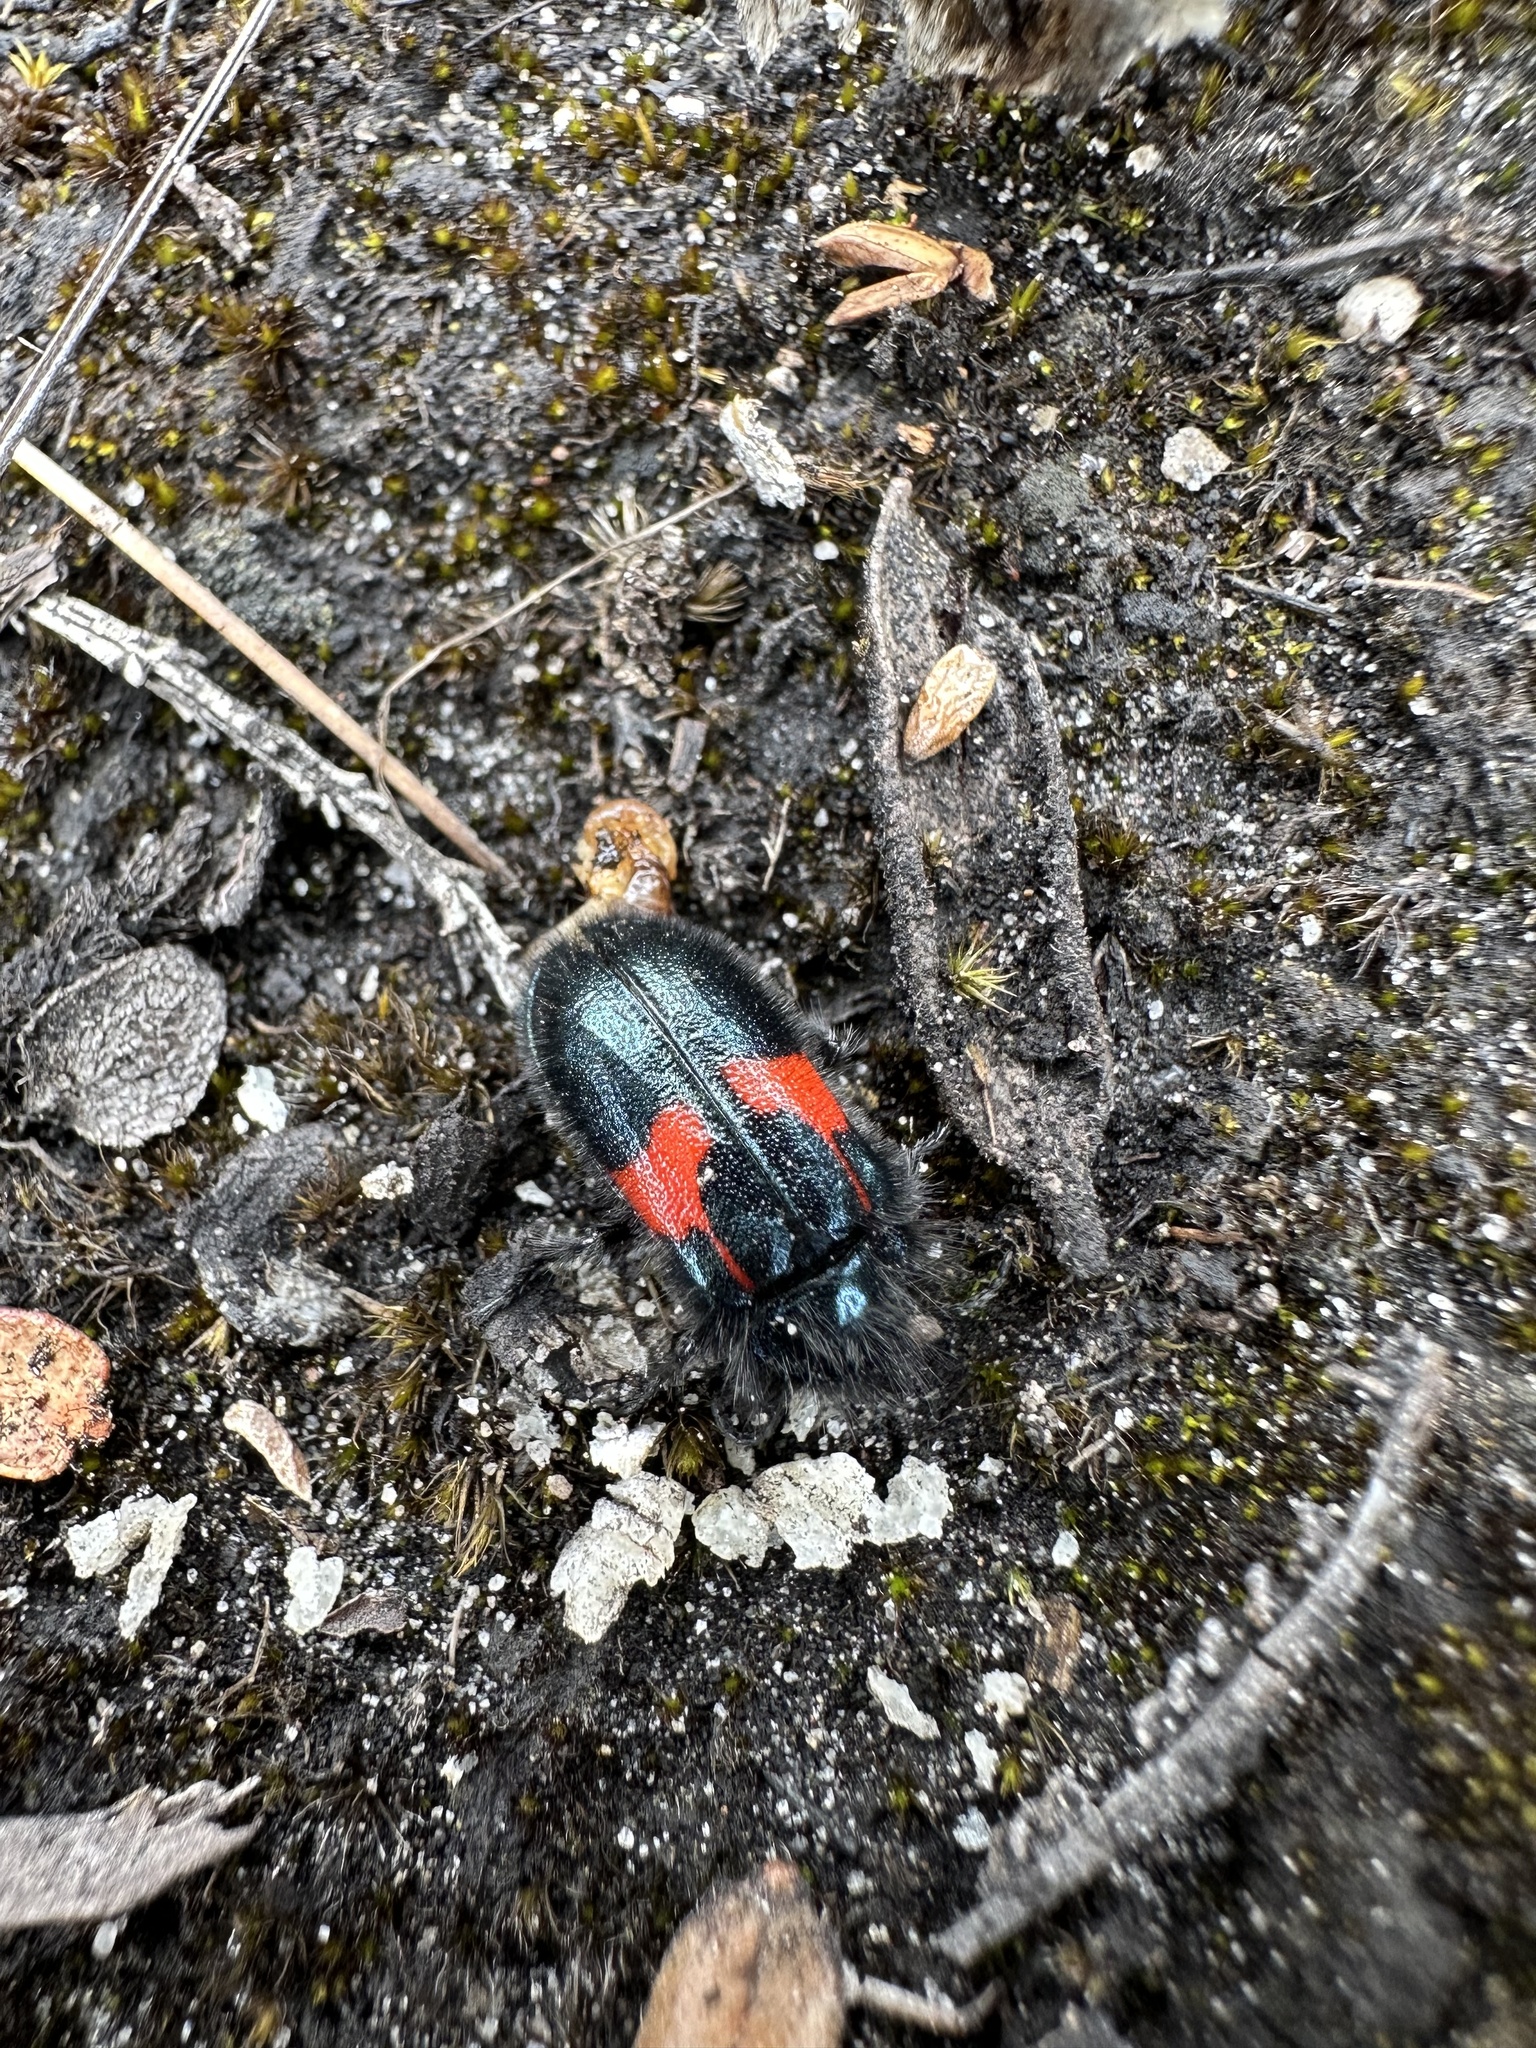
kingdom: Animalia
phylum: Arthropoda
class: Insecta
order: Coleoptera
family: Melyridae
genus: Astylus
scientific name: Astylus
